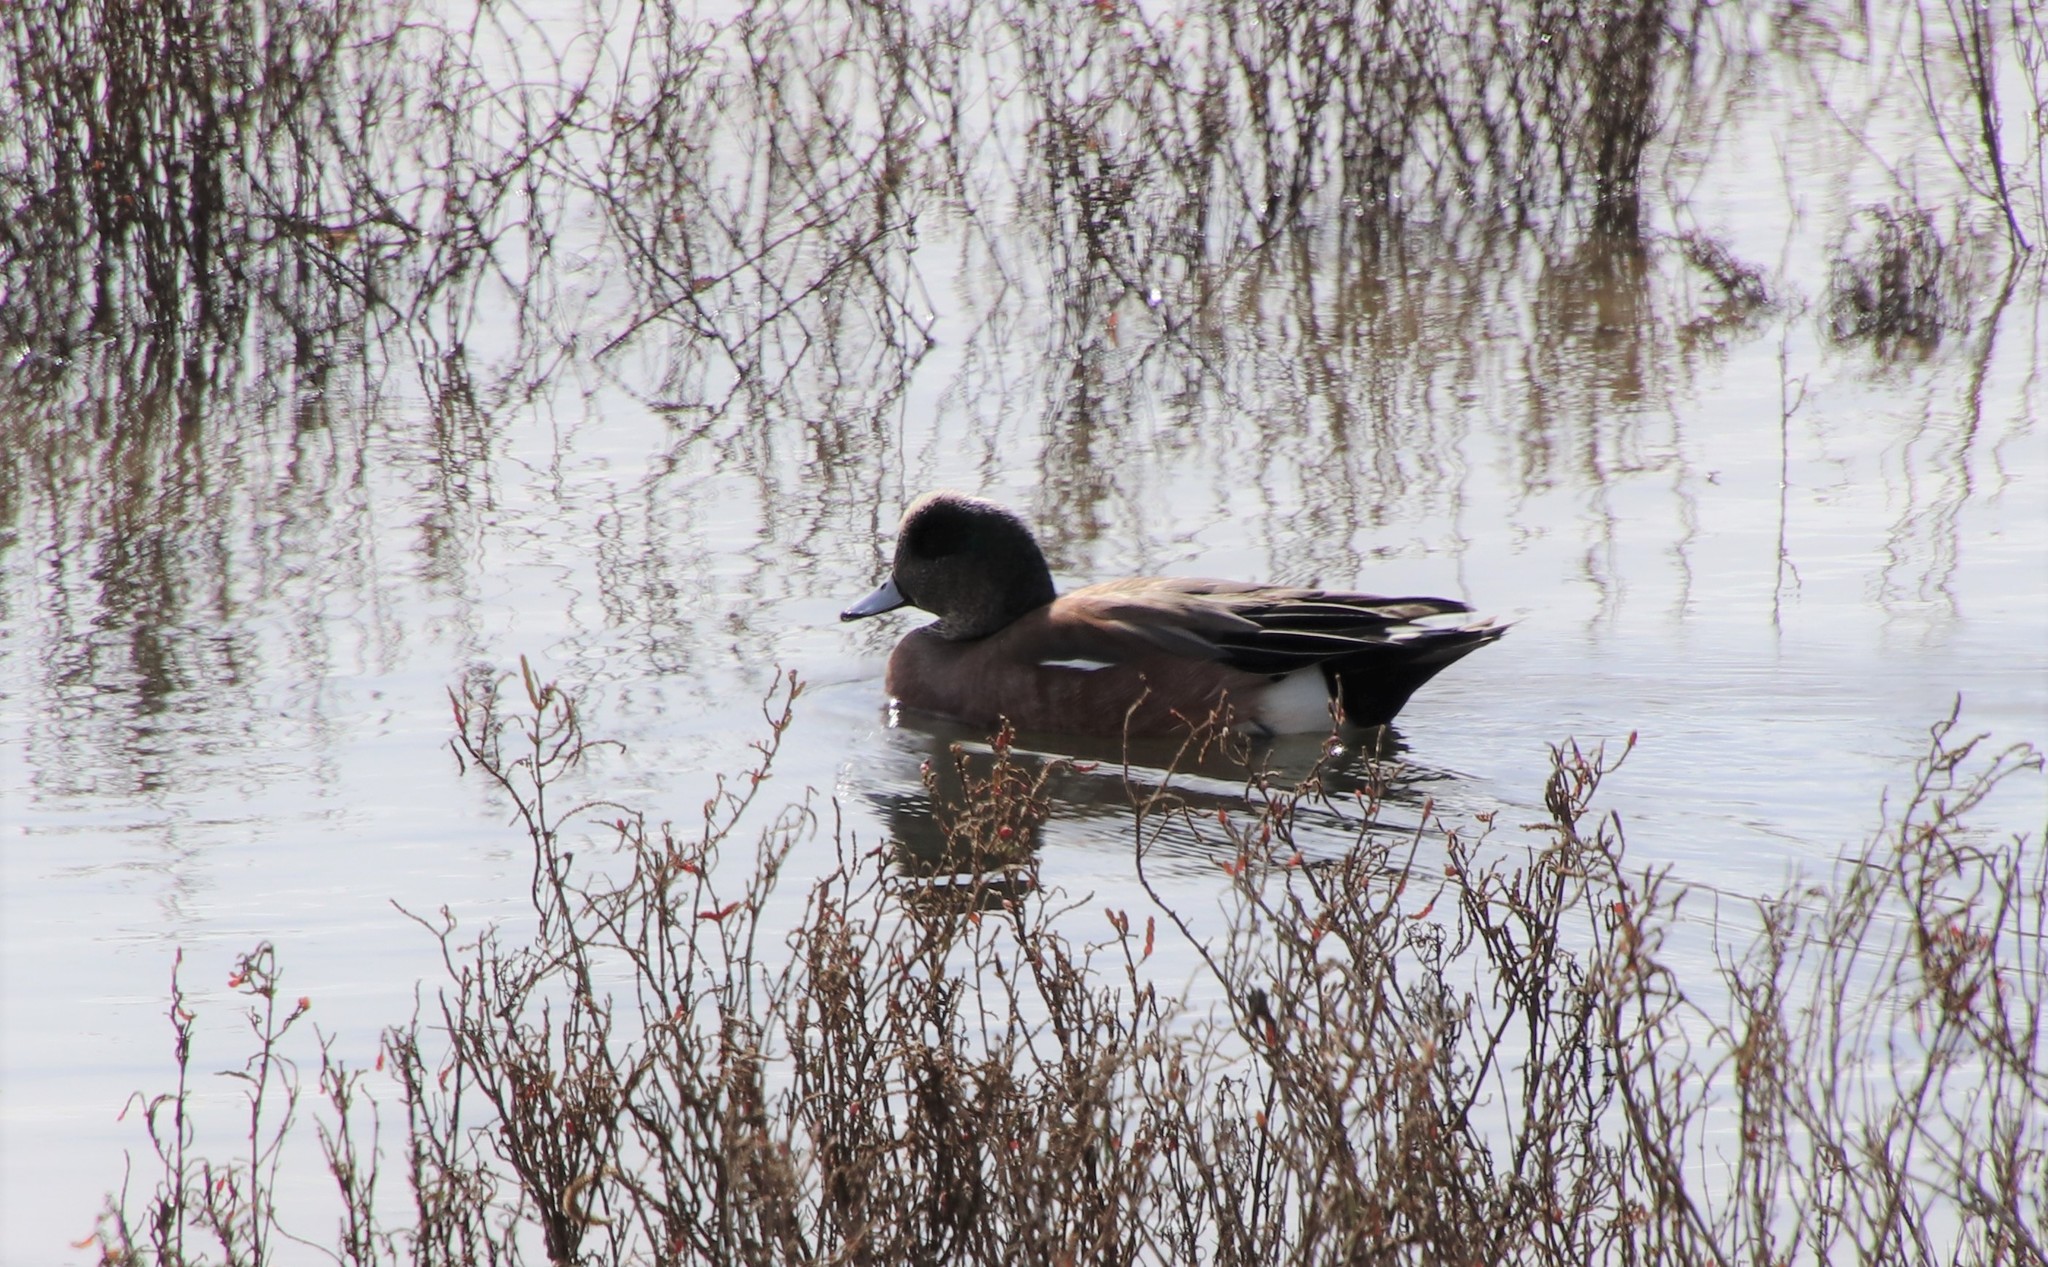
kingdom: Animalia
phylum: Chordata
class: Aves
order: Anseriformes
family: Anatidae
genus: Mareca
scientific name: Mareca americana
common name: American wigeon
